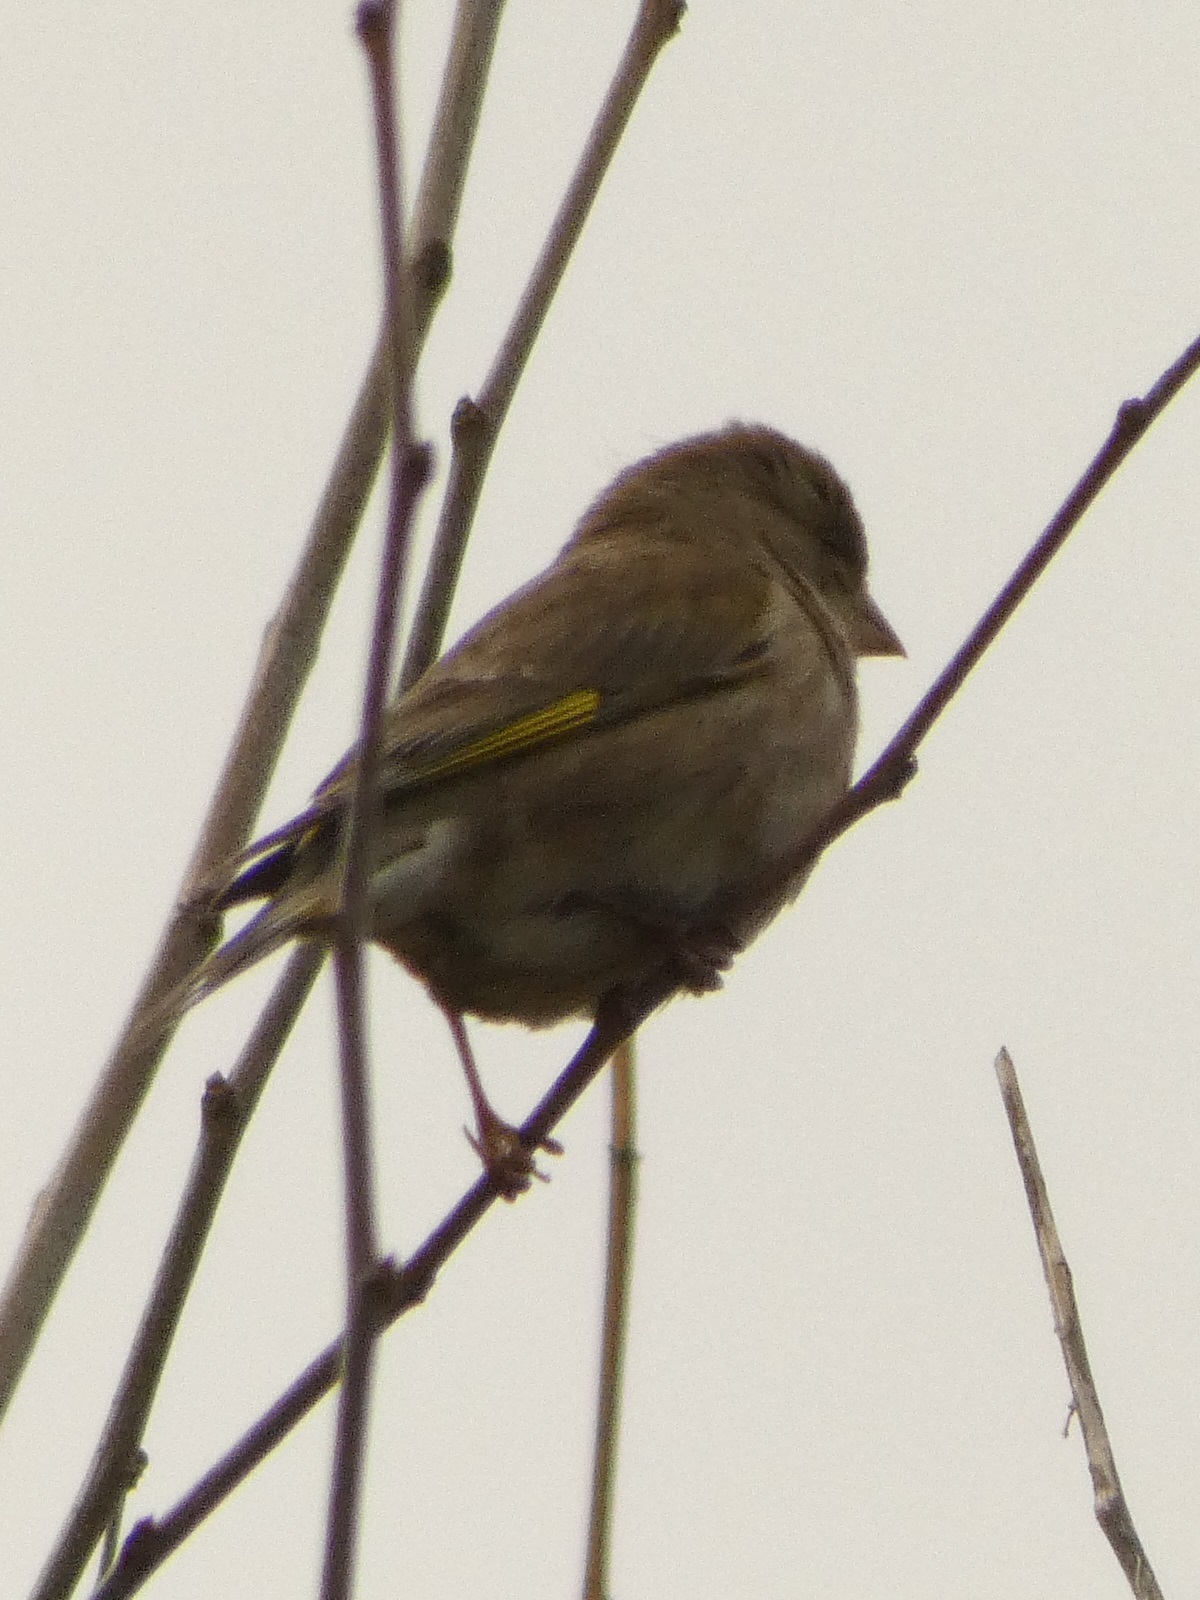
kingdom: Plantae
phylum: Tracheophyta
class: Liliopsida
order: Poales
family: Poaceae
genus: Chloris
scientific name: Chloris chloris
